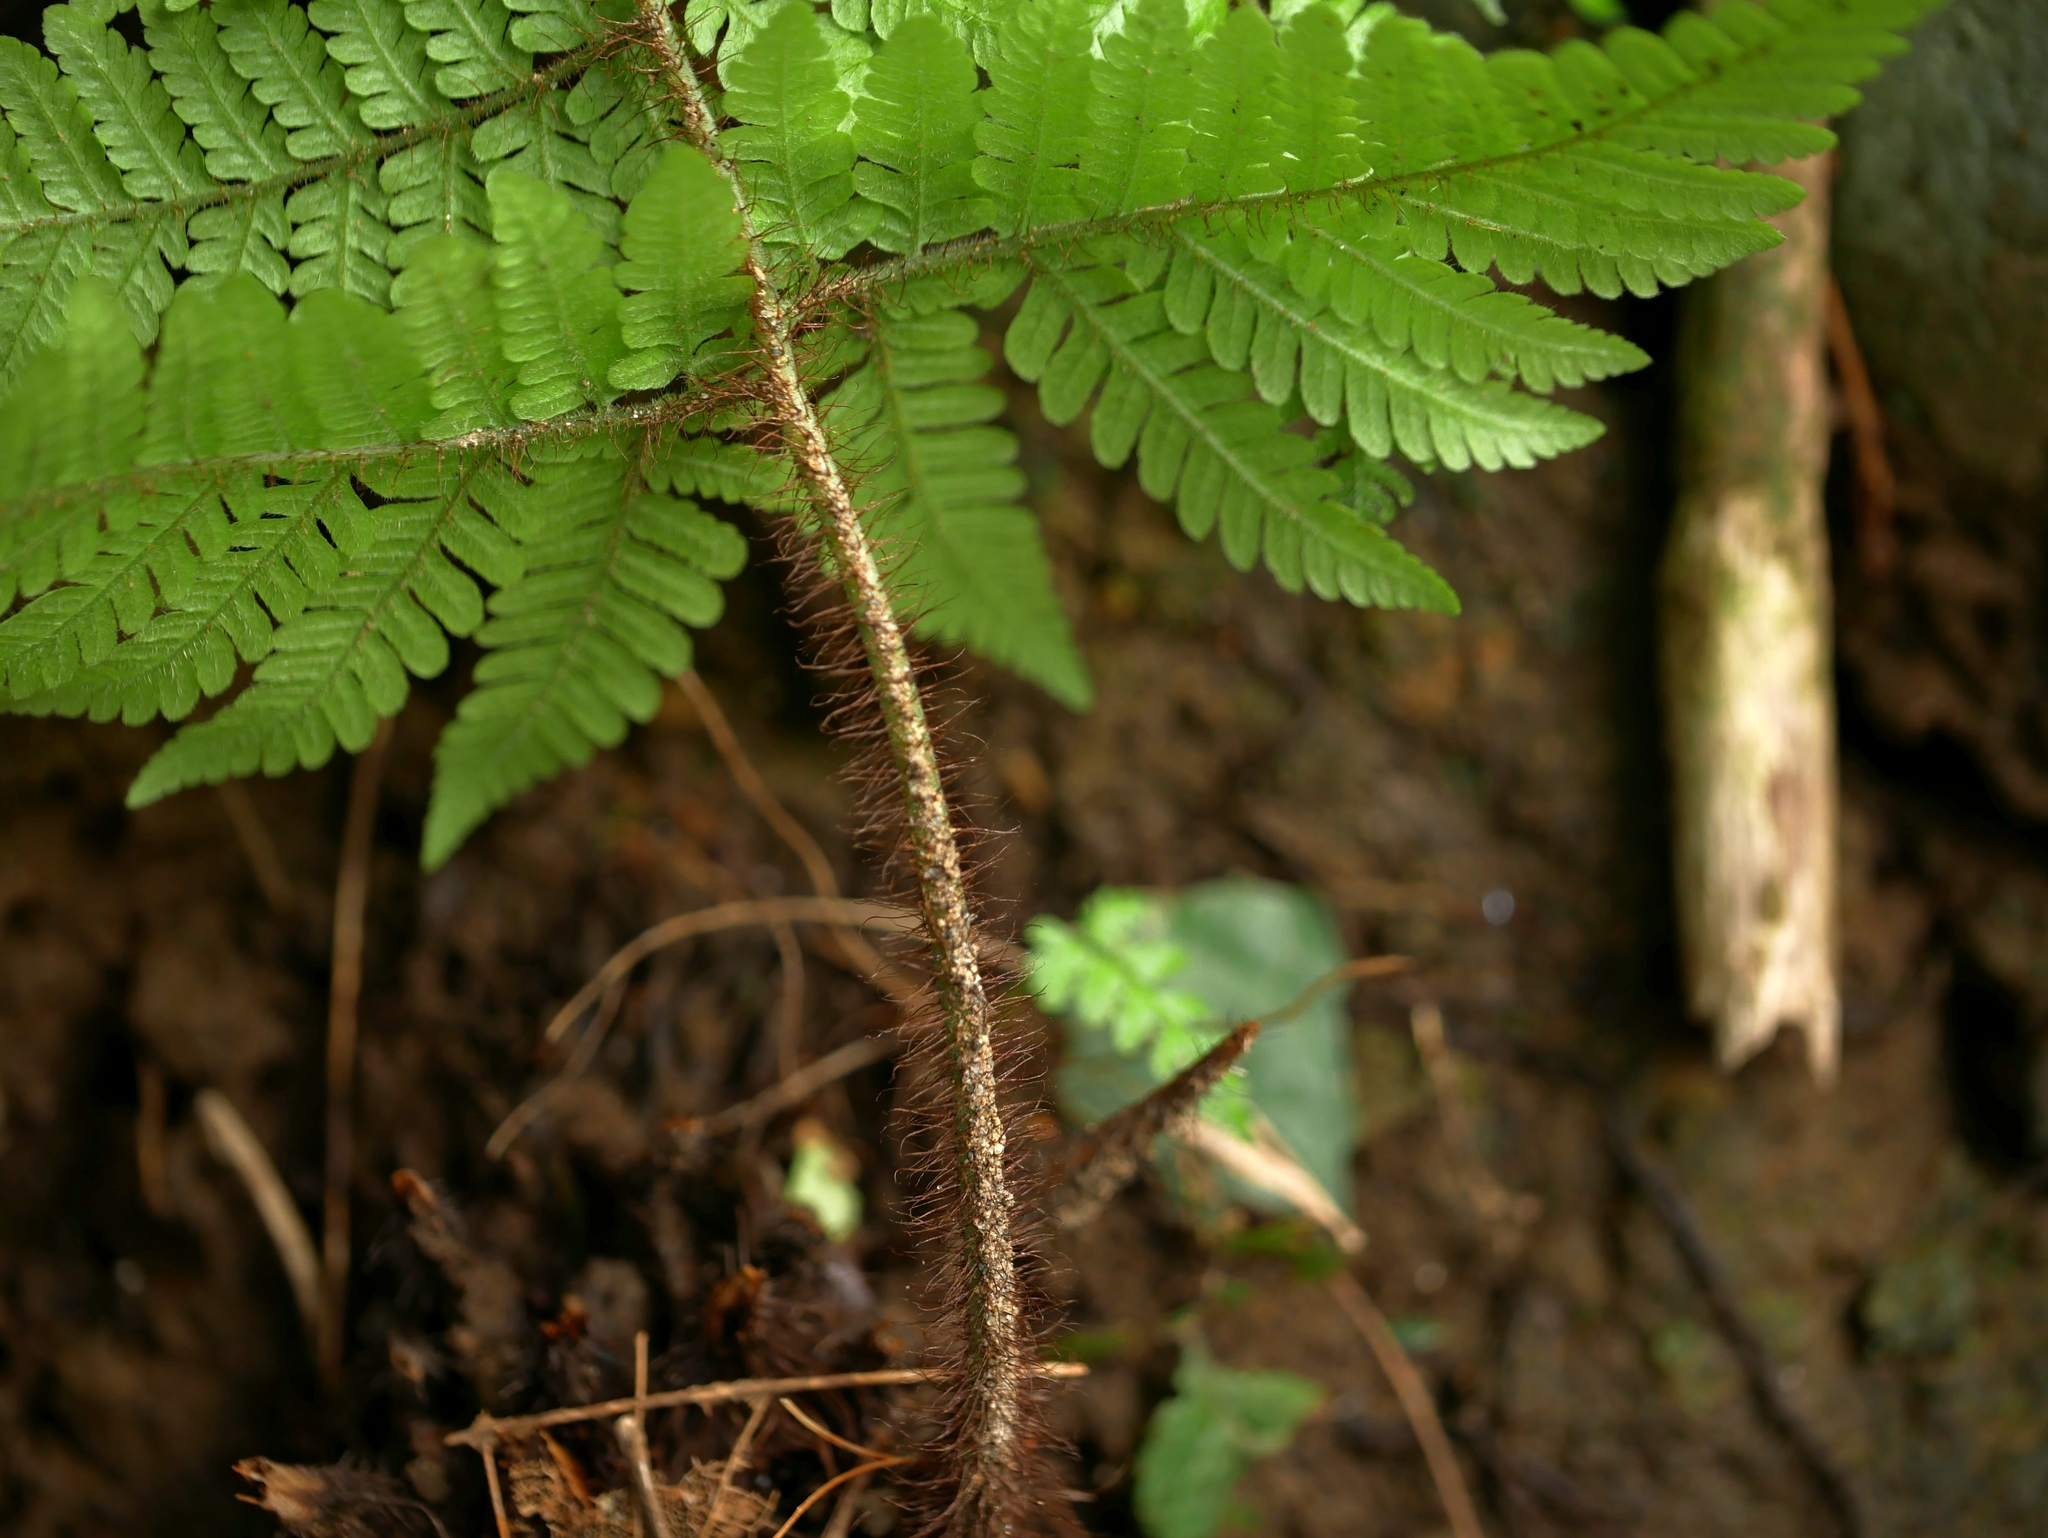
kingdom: Plantae
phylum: Tracheophyta
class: Polypodiopsida
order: Polypodiales
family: Dryopteridaceae
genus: Ctenitis
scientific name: Ctenitis eatonii
